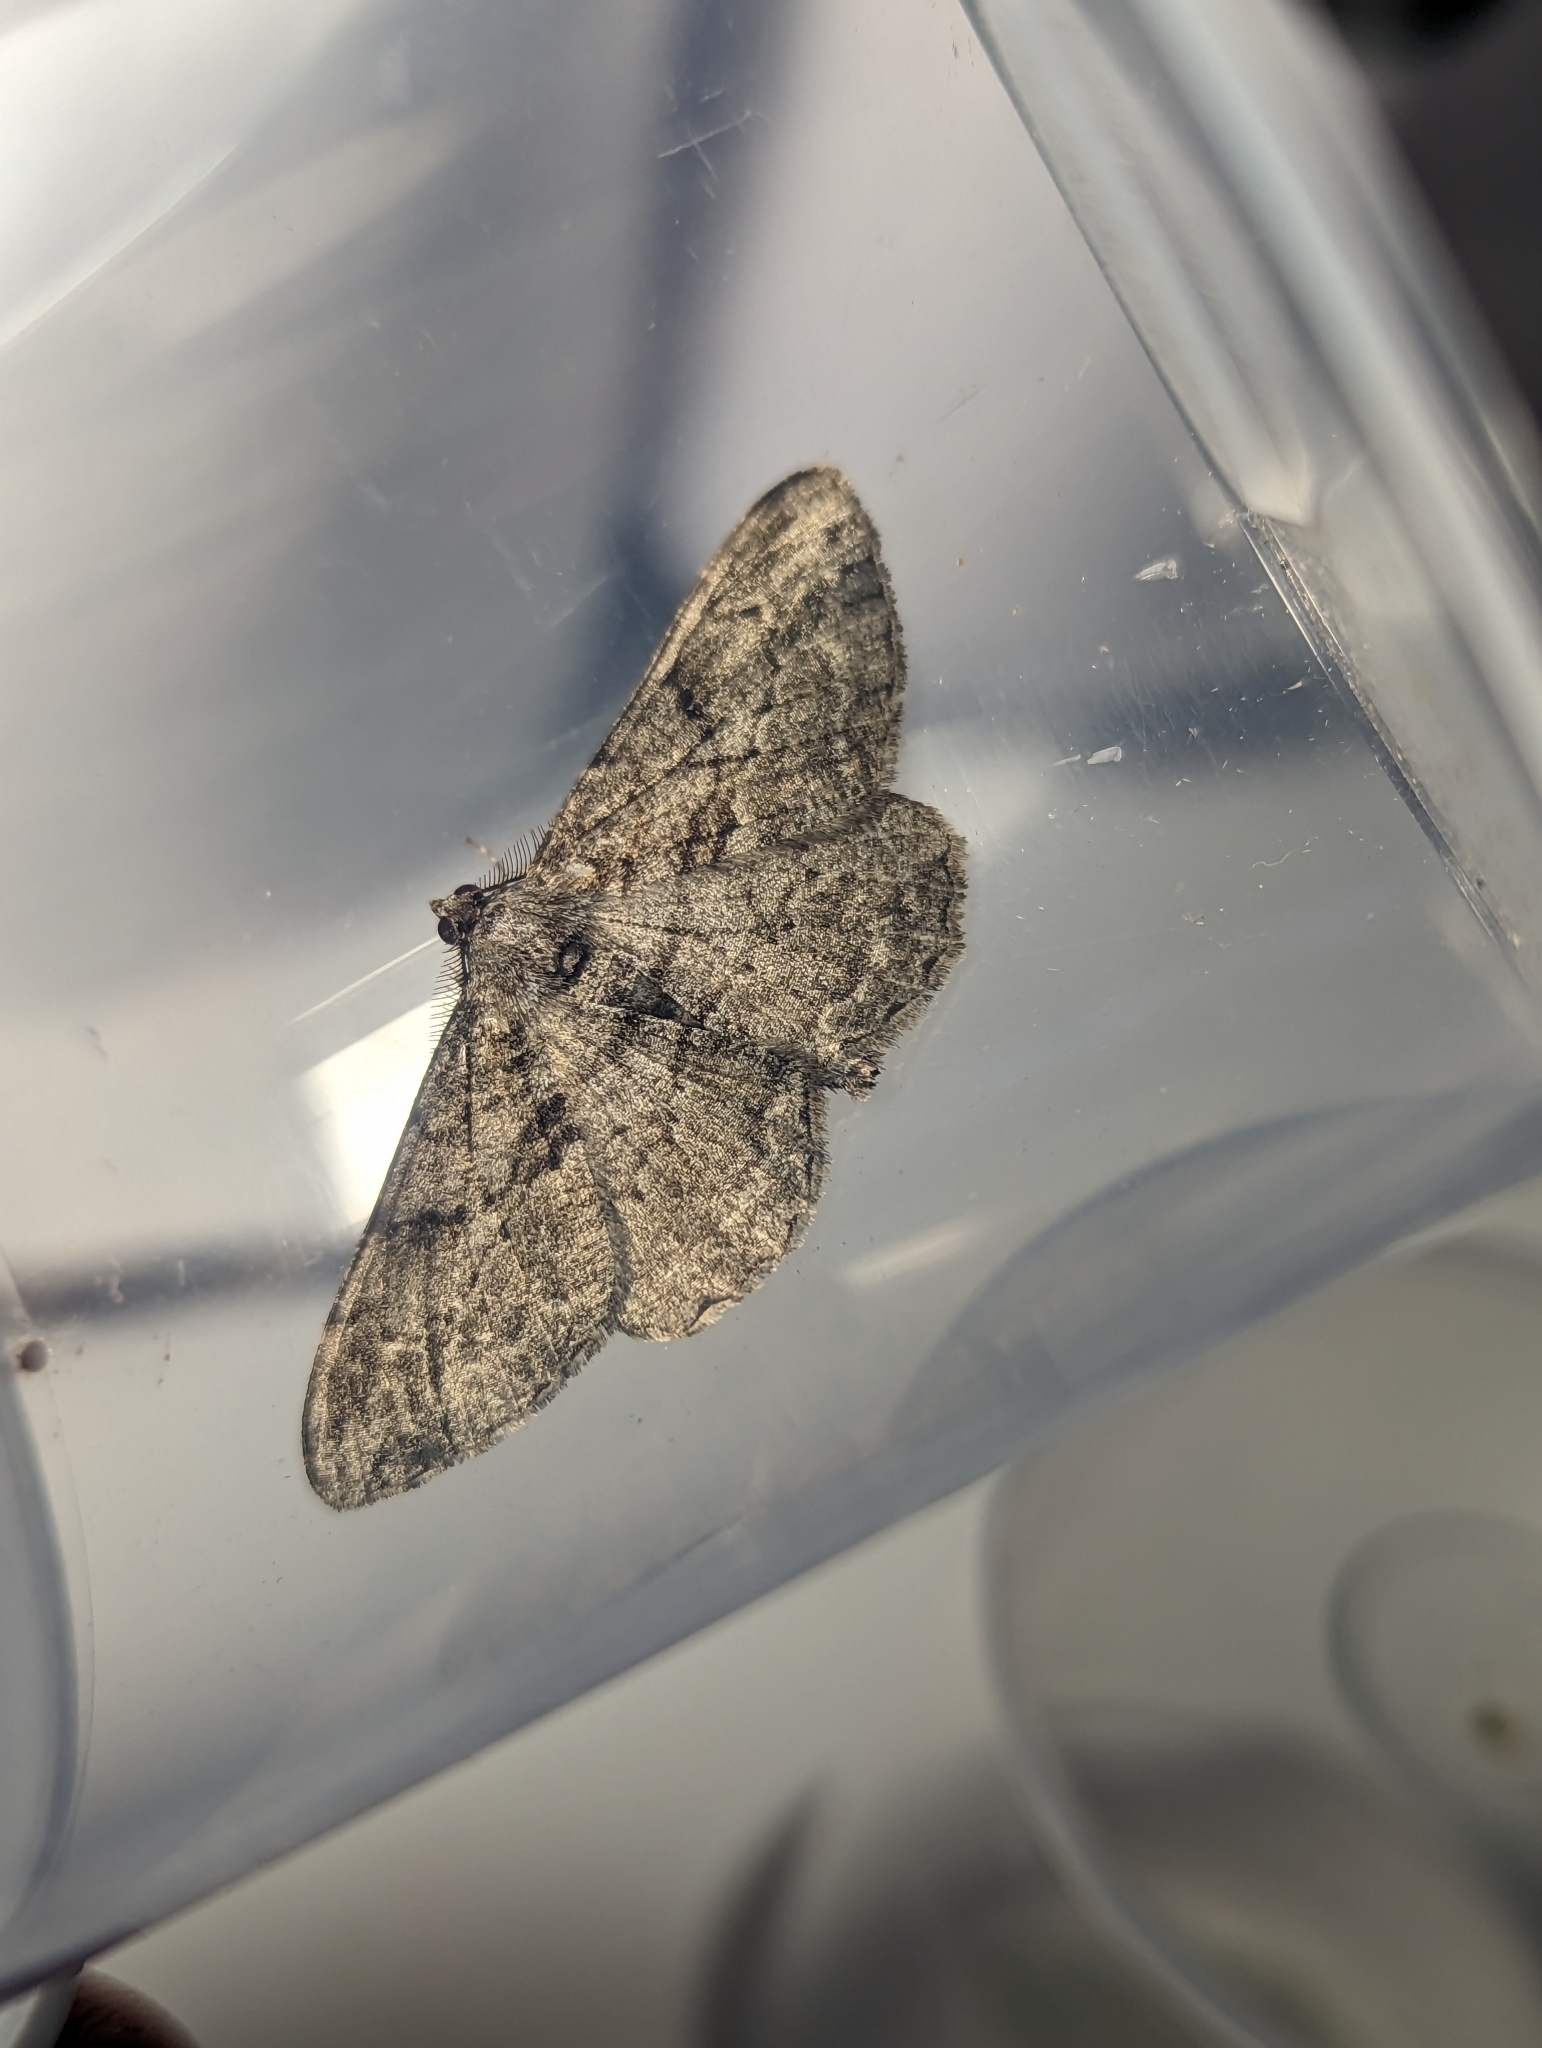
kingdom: Animalia
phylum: Arthropoda
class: Insecta
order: Lepidoptera
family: Geometridae
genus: Peribatodes
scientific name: Peribatodes rhomboidaria
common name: Willow beauty
